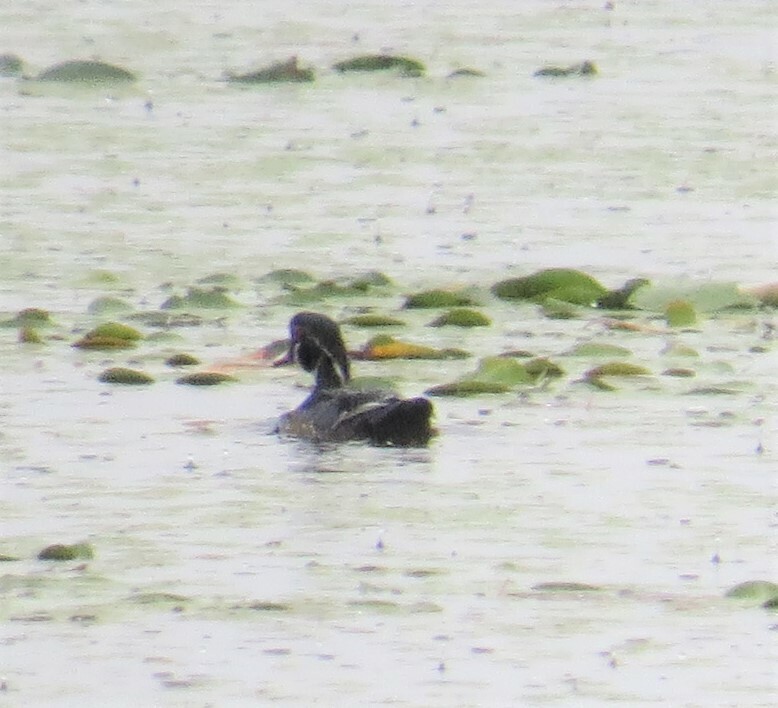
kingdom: Animalia
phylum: Chordata
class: Aves
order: Anseriformes
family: Anatidae
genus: Aix
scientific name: Aix sponsa
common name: Wood duck
